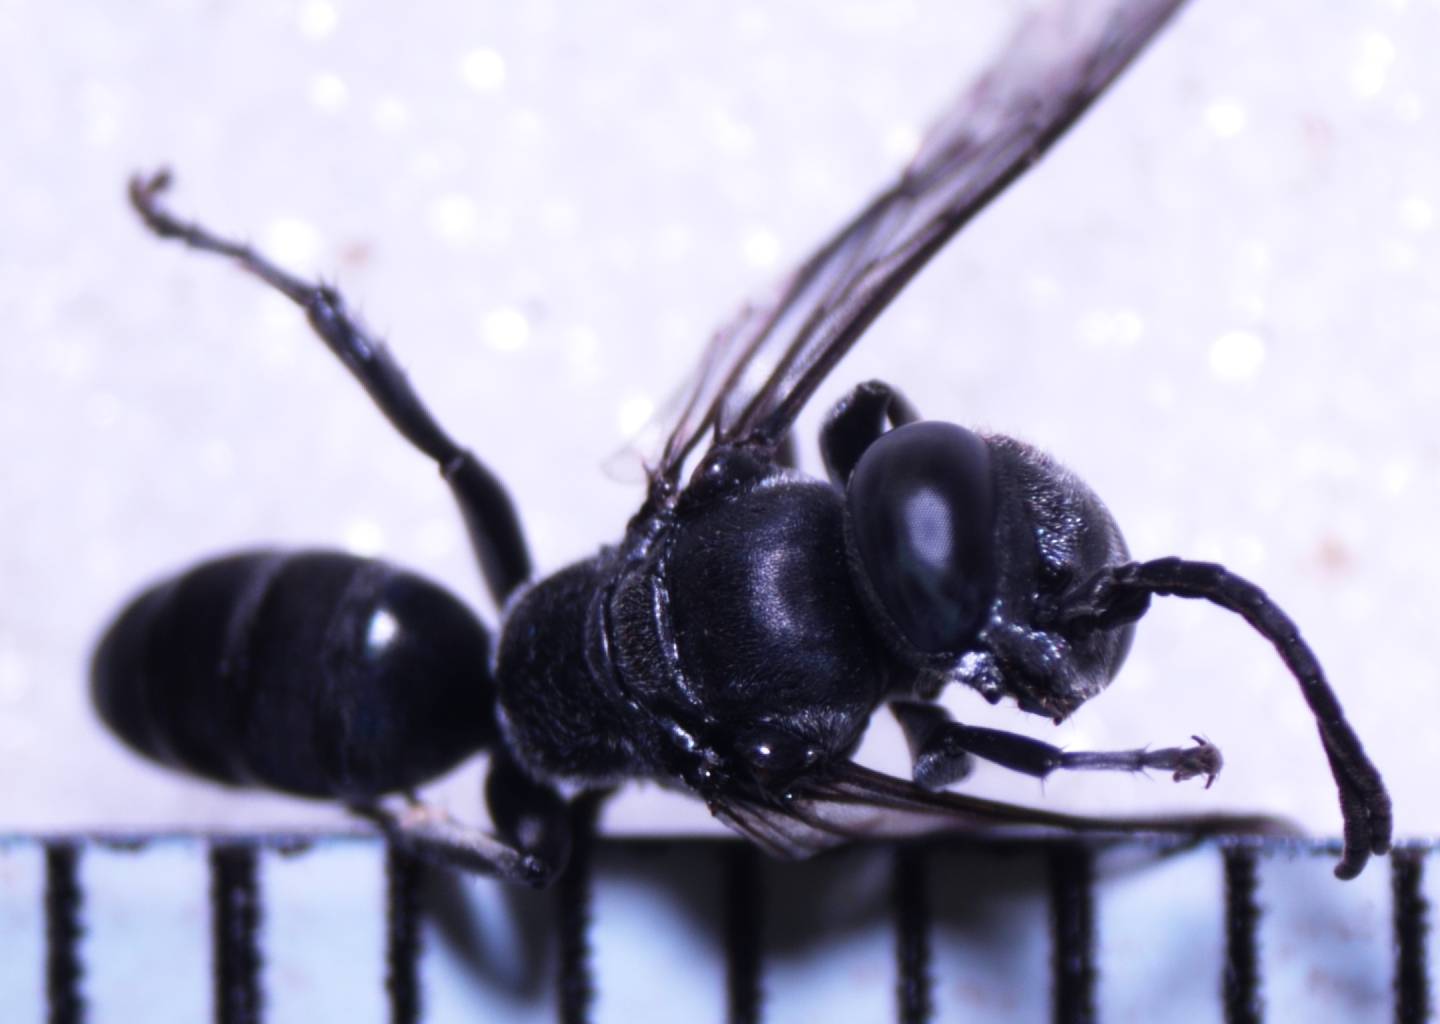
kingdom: Animalia
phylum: Arthropoda
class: Insecta
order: Hymenoptera
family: Crabronidae
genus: Tachysphex
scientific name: Tachysphex fanuiensis
